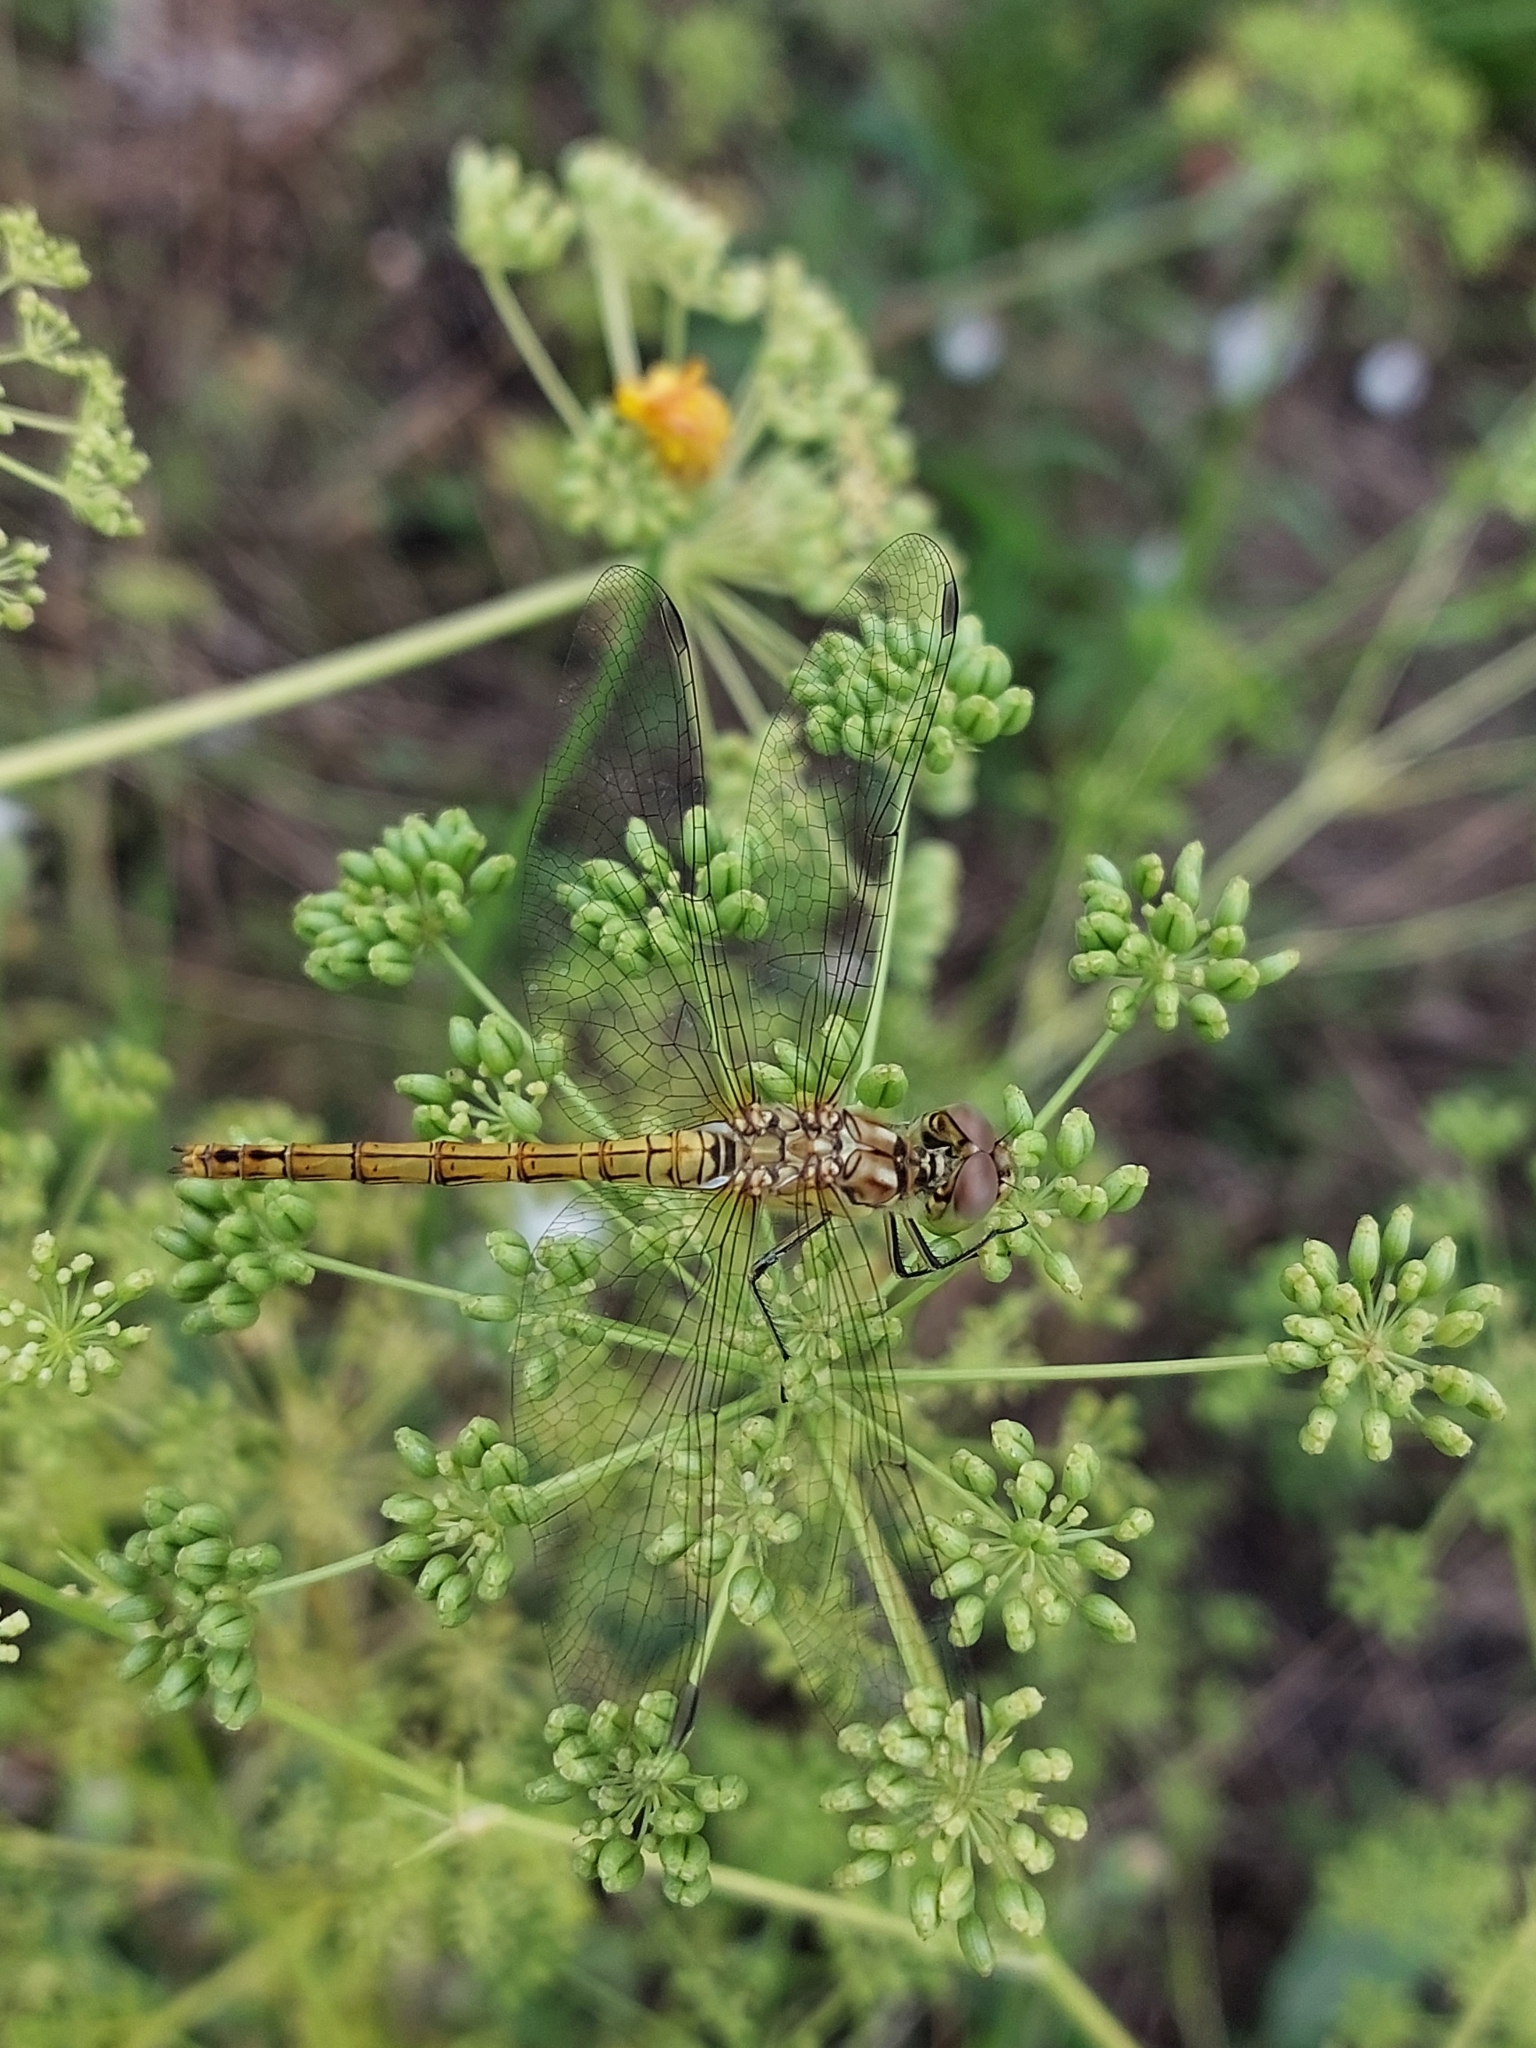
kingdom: Animalia
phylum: Arthropoda
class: Insecta
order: Odonata
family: Libellulidae
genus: Sympetrum
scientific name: Sympetrum vulgatum
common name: Vagrant darter
